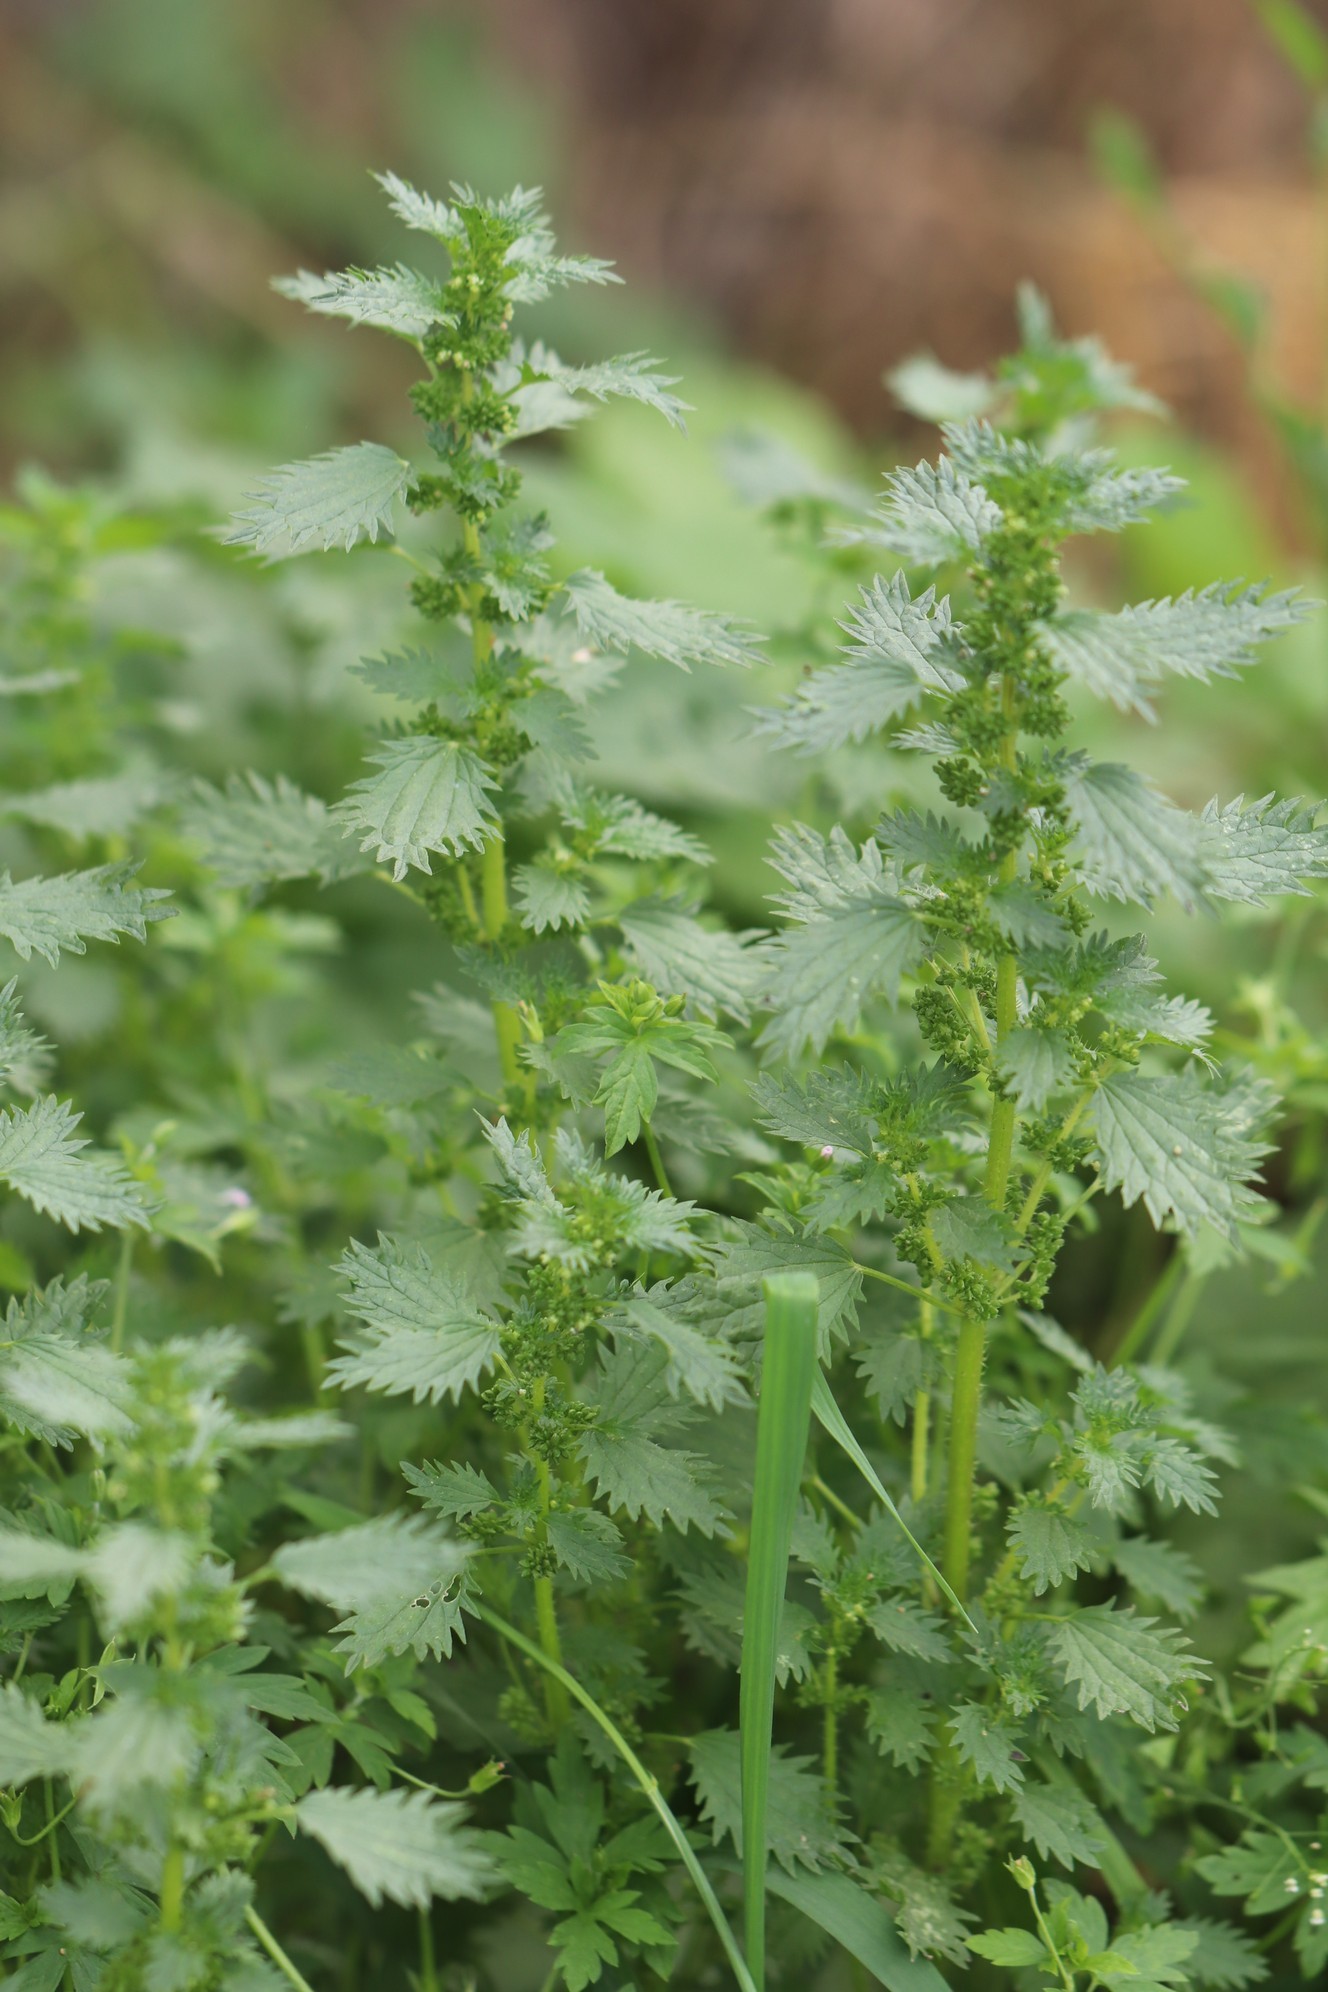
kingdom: Plantae
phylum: Tracheophyta
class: Magnoliopsida
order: Rosales
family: Urticaceae
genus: Urtica
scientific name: Urtica urens
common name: Dwarf nettle
